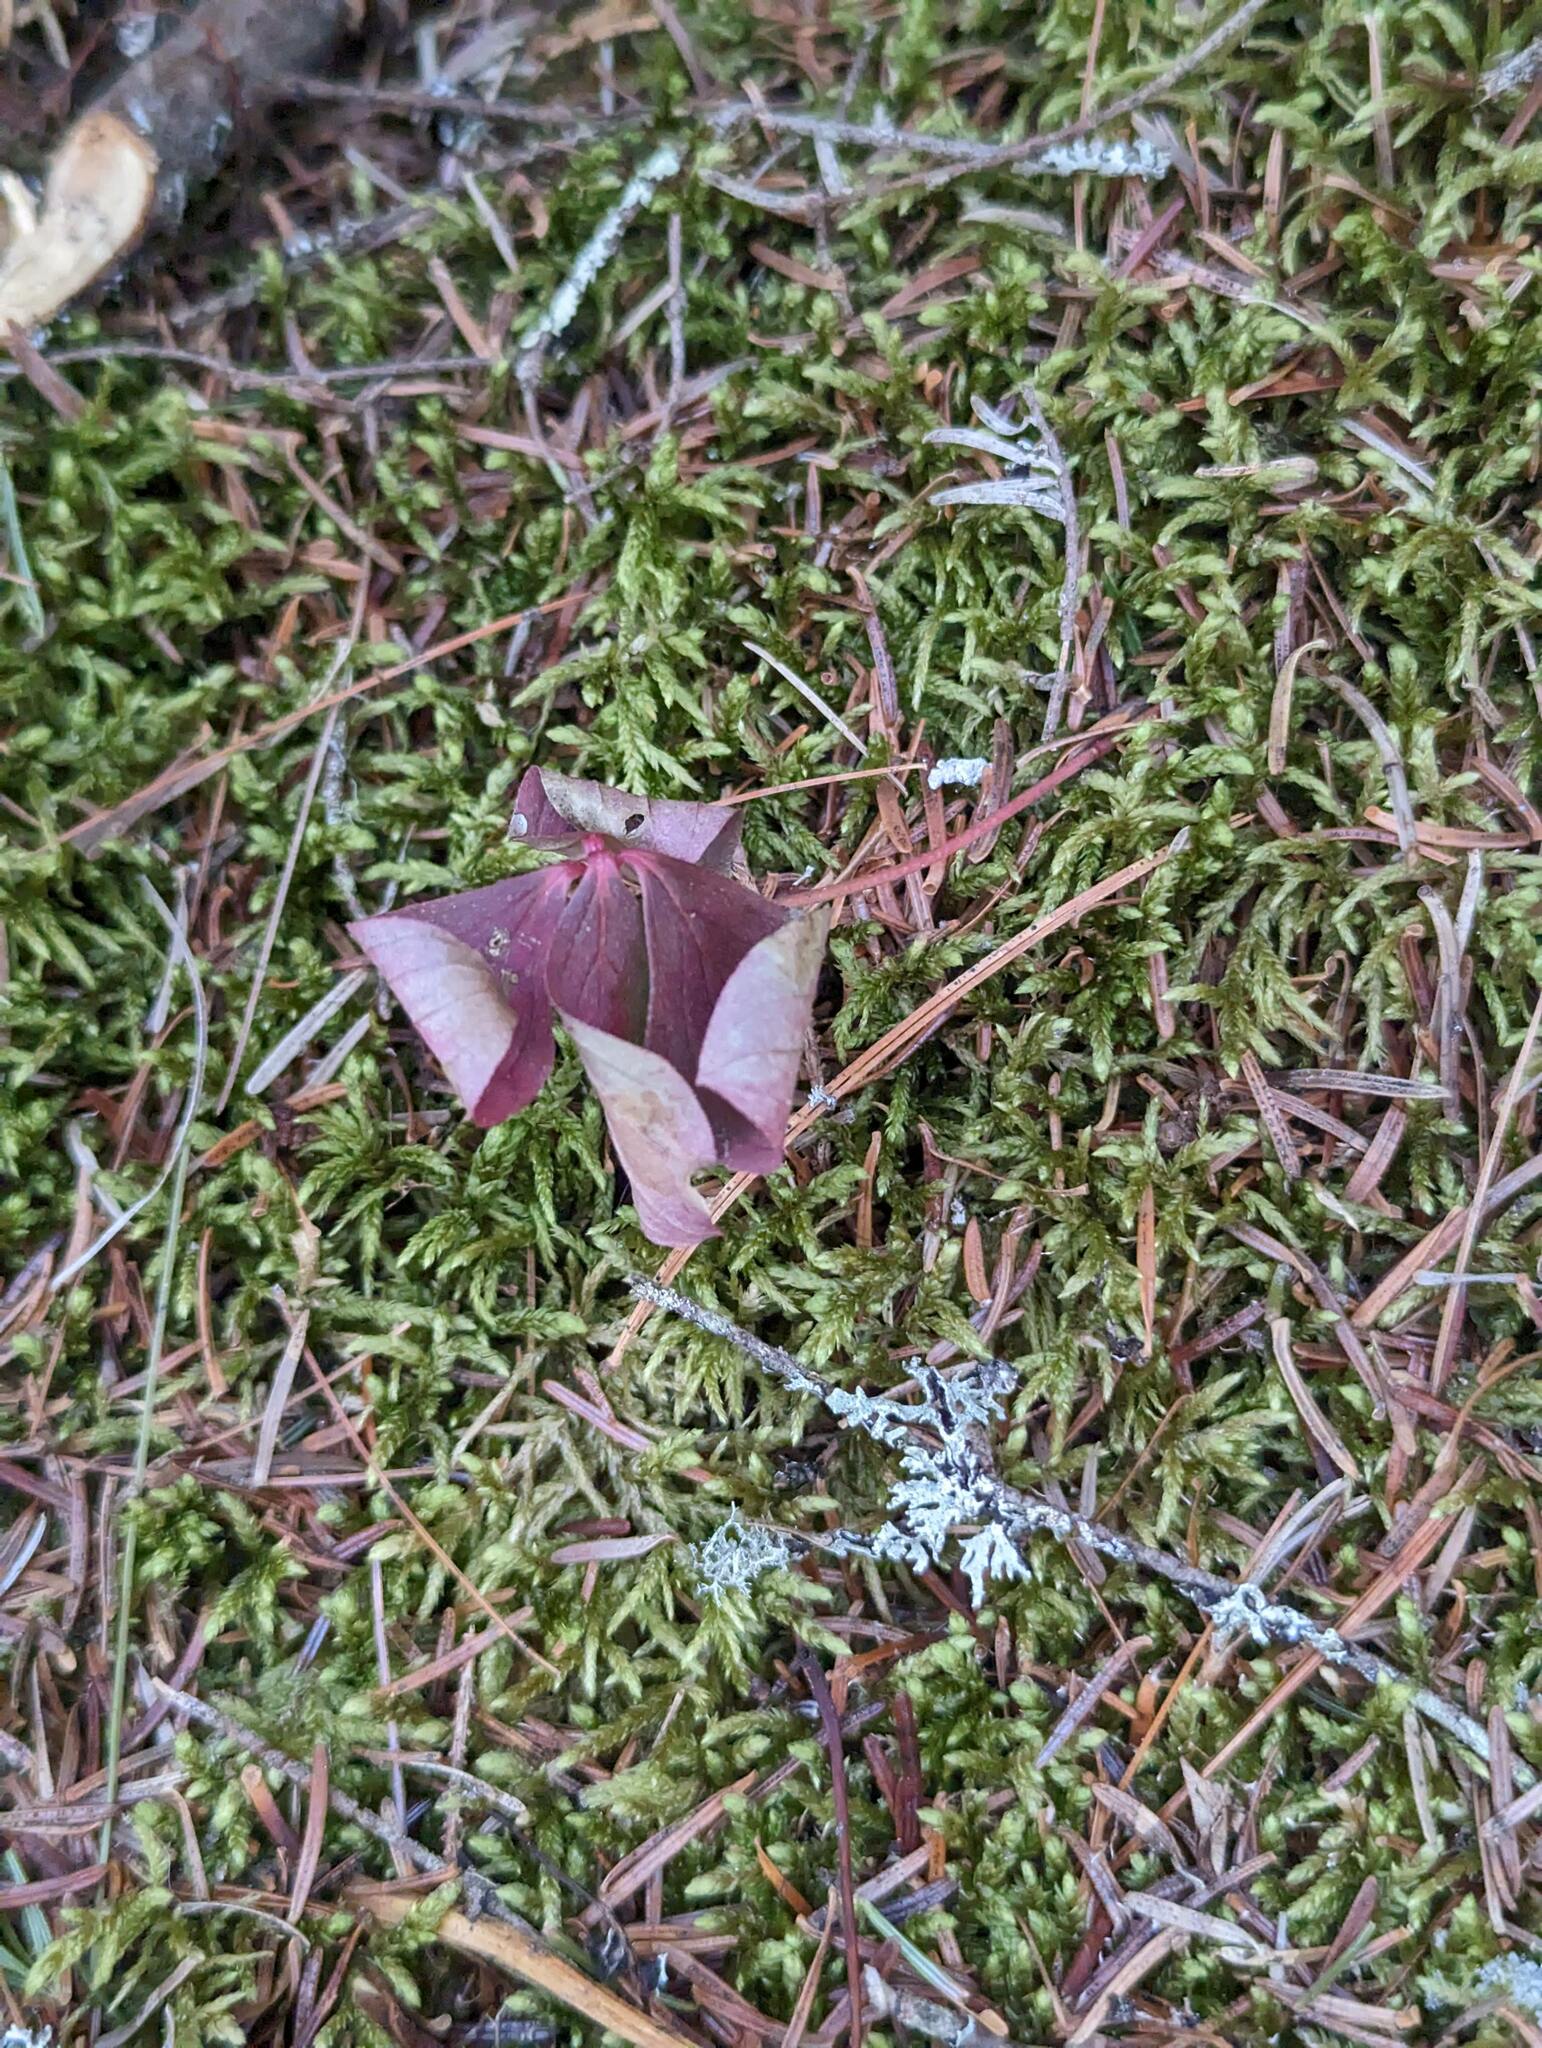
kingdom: Plantae
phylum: Tracheophyta
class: Magnoliopsida
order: Cornales
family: Cornaceae
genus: Cornus
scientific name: Cornus canadensis
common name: Creeping dogwood
